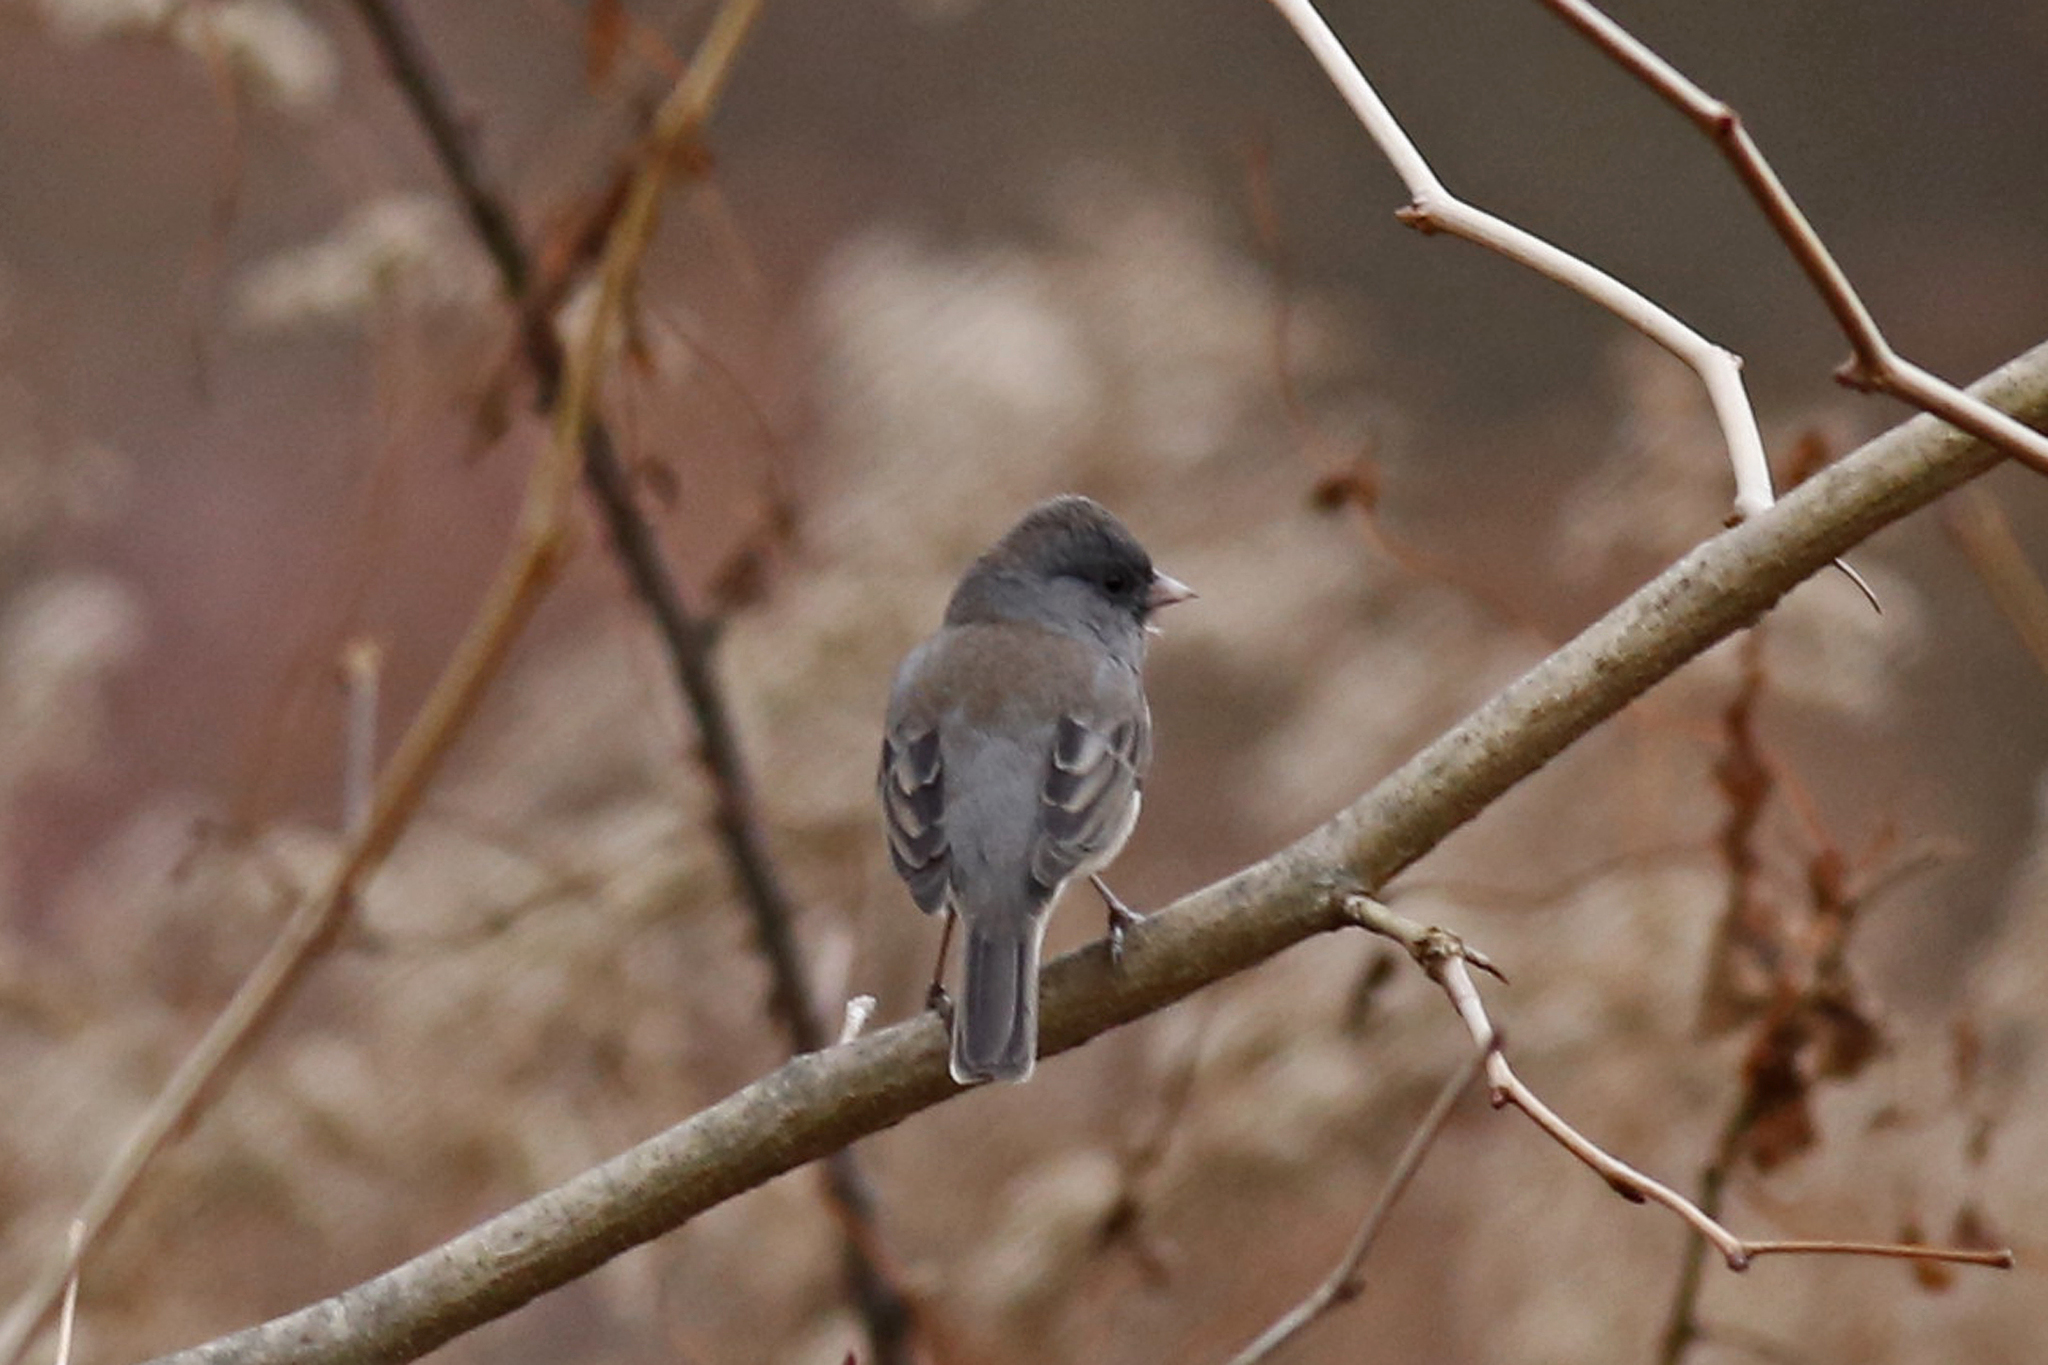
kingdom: Animalia
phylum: Chordata
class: Aves
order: Passeriformes
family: Passerellidae
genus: Junco
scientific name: Junco hyemalis
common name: Dark-eyed junco
